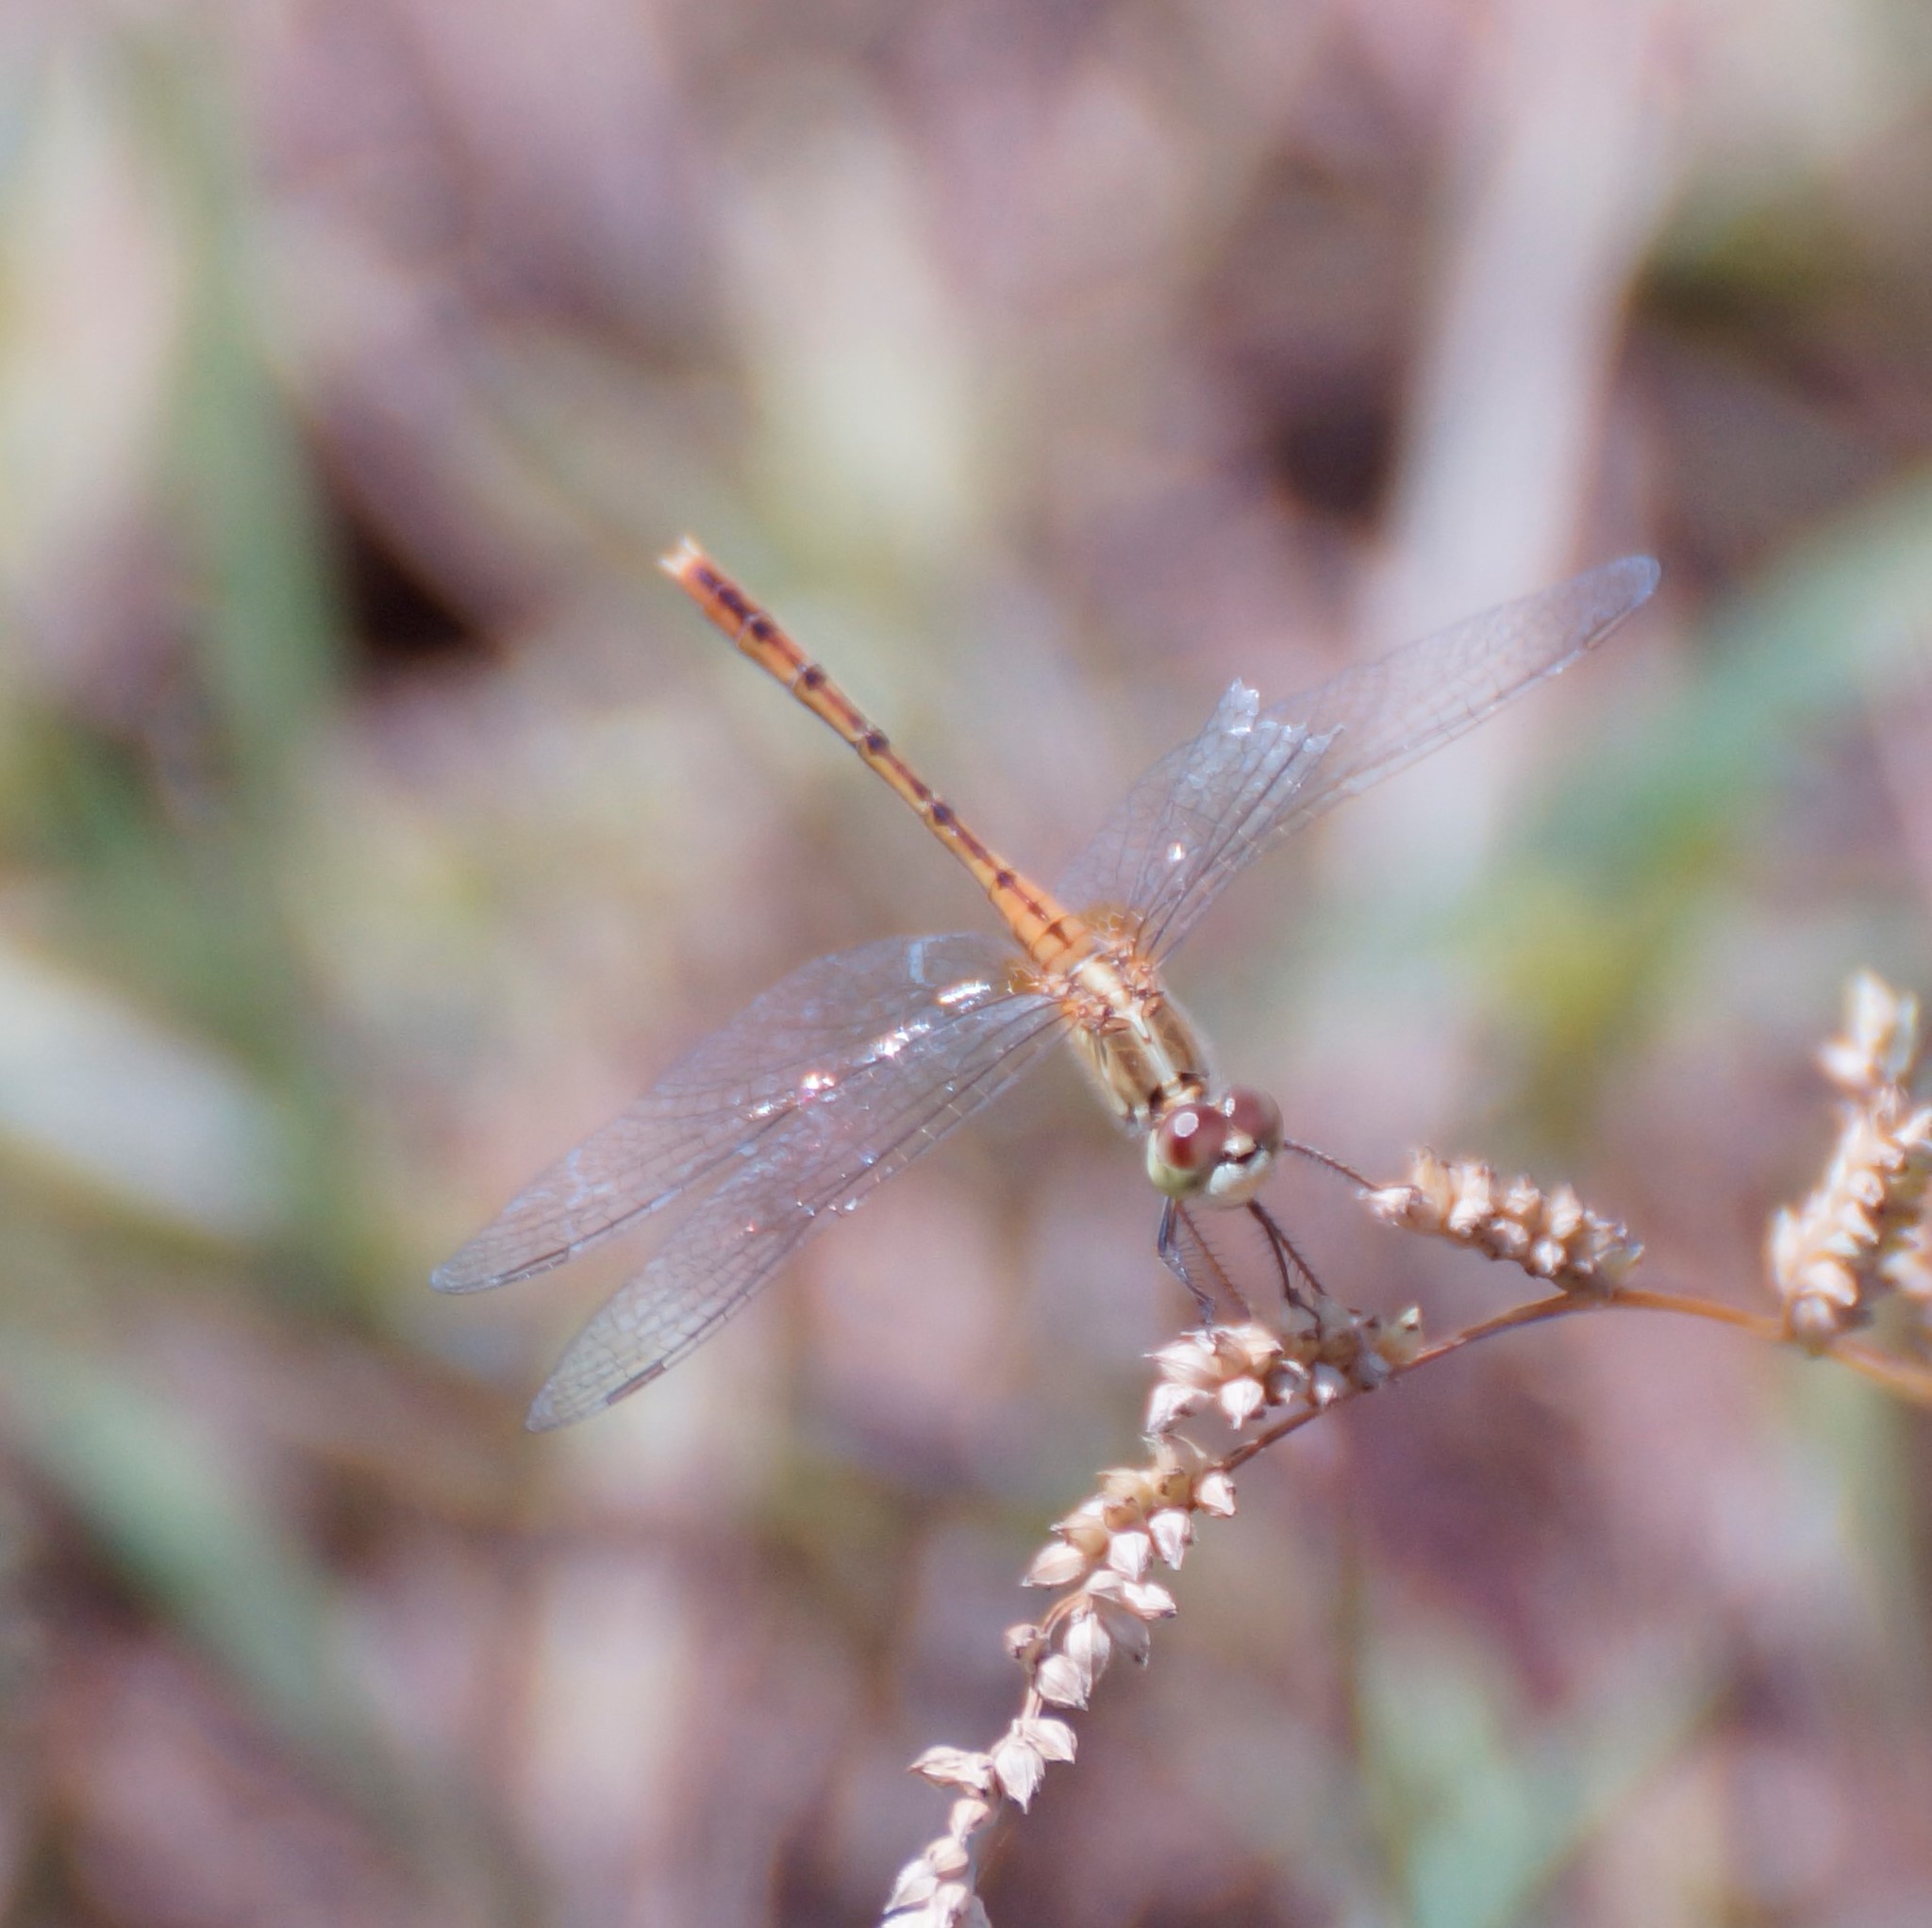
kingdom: Animalia
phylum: Arthropoda
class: Insecta
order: Odonata
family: Libellulidae
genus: Diplacodes
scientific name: Diplacodes bipunctata
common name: Red percher dragonfly
